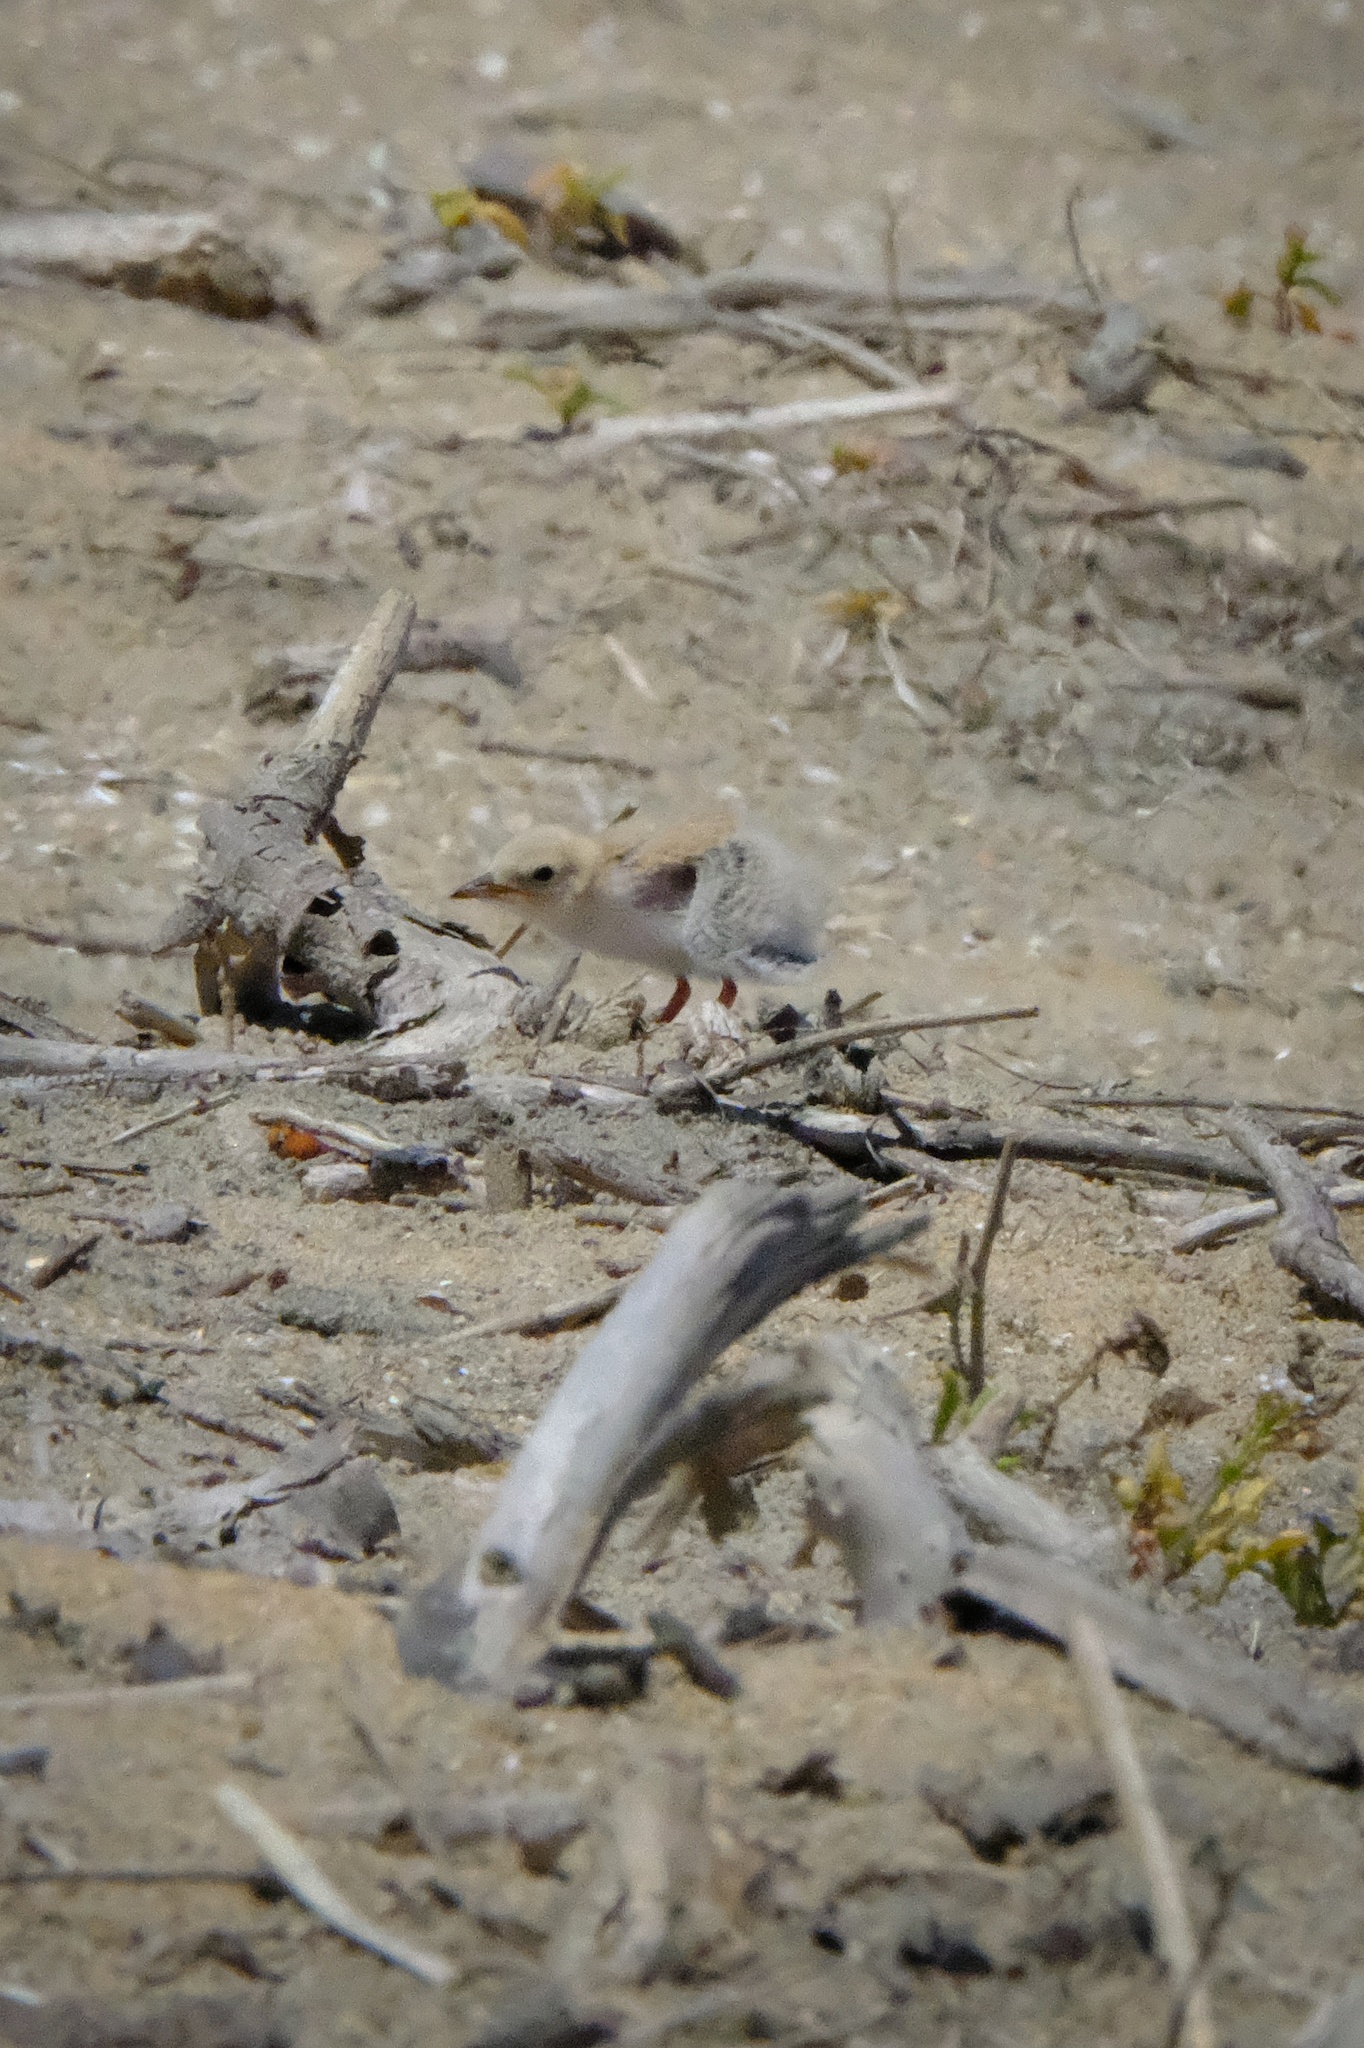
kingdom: Animalia
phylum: Chordata
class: Aves
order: Charadriiformes
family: Laridae
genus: Sternula
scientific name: Sternula antillarum
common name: Least tern
